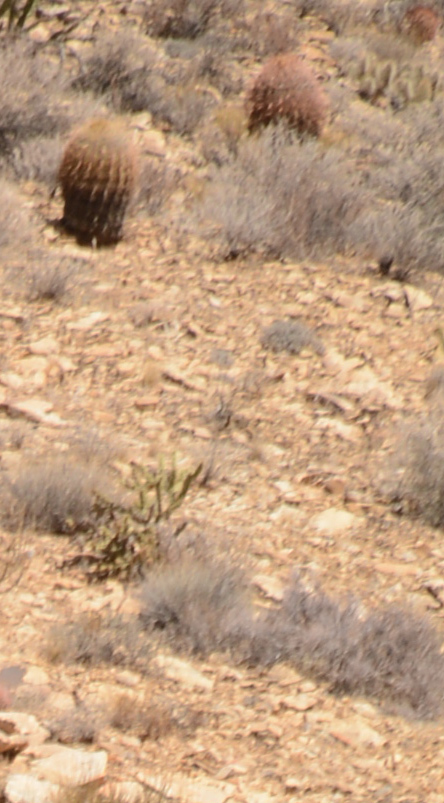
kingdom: Plantae
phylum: Tracheophyta
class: Magnoliopsida
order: Caryophyllales
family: Cactaceae
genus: Ferocactus
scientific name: Ferocactus cylindraceus
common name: California barrel cactus
